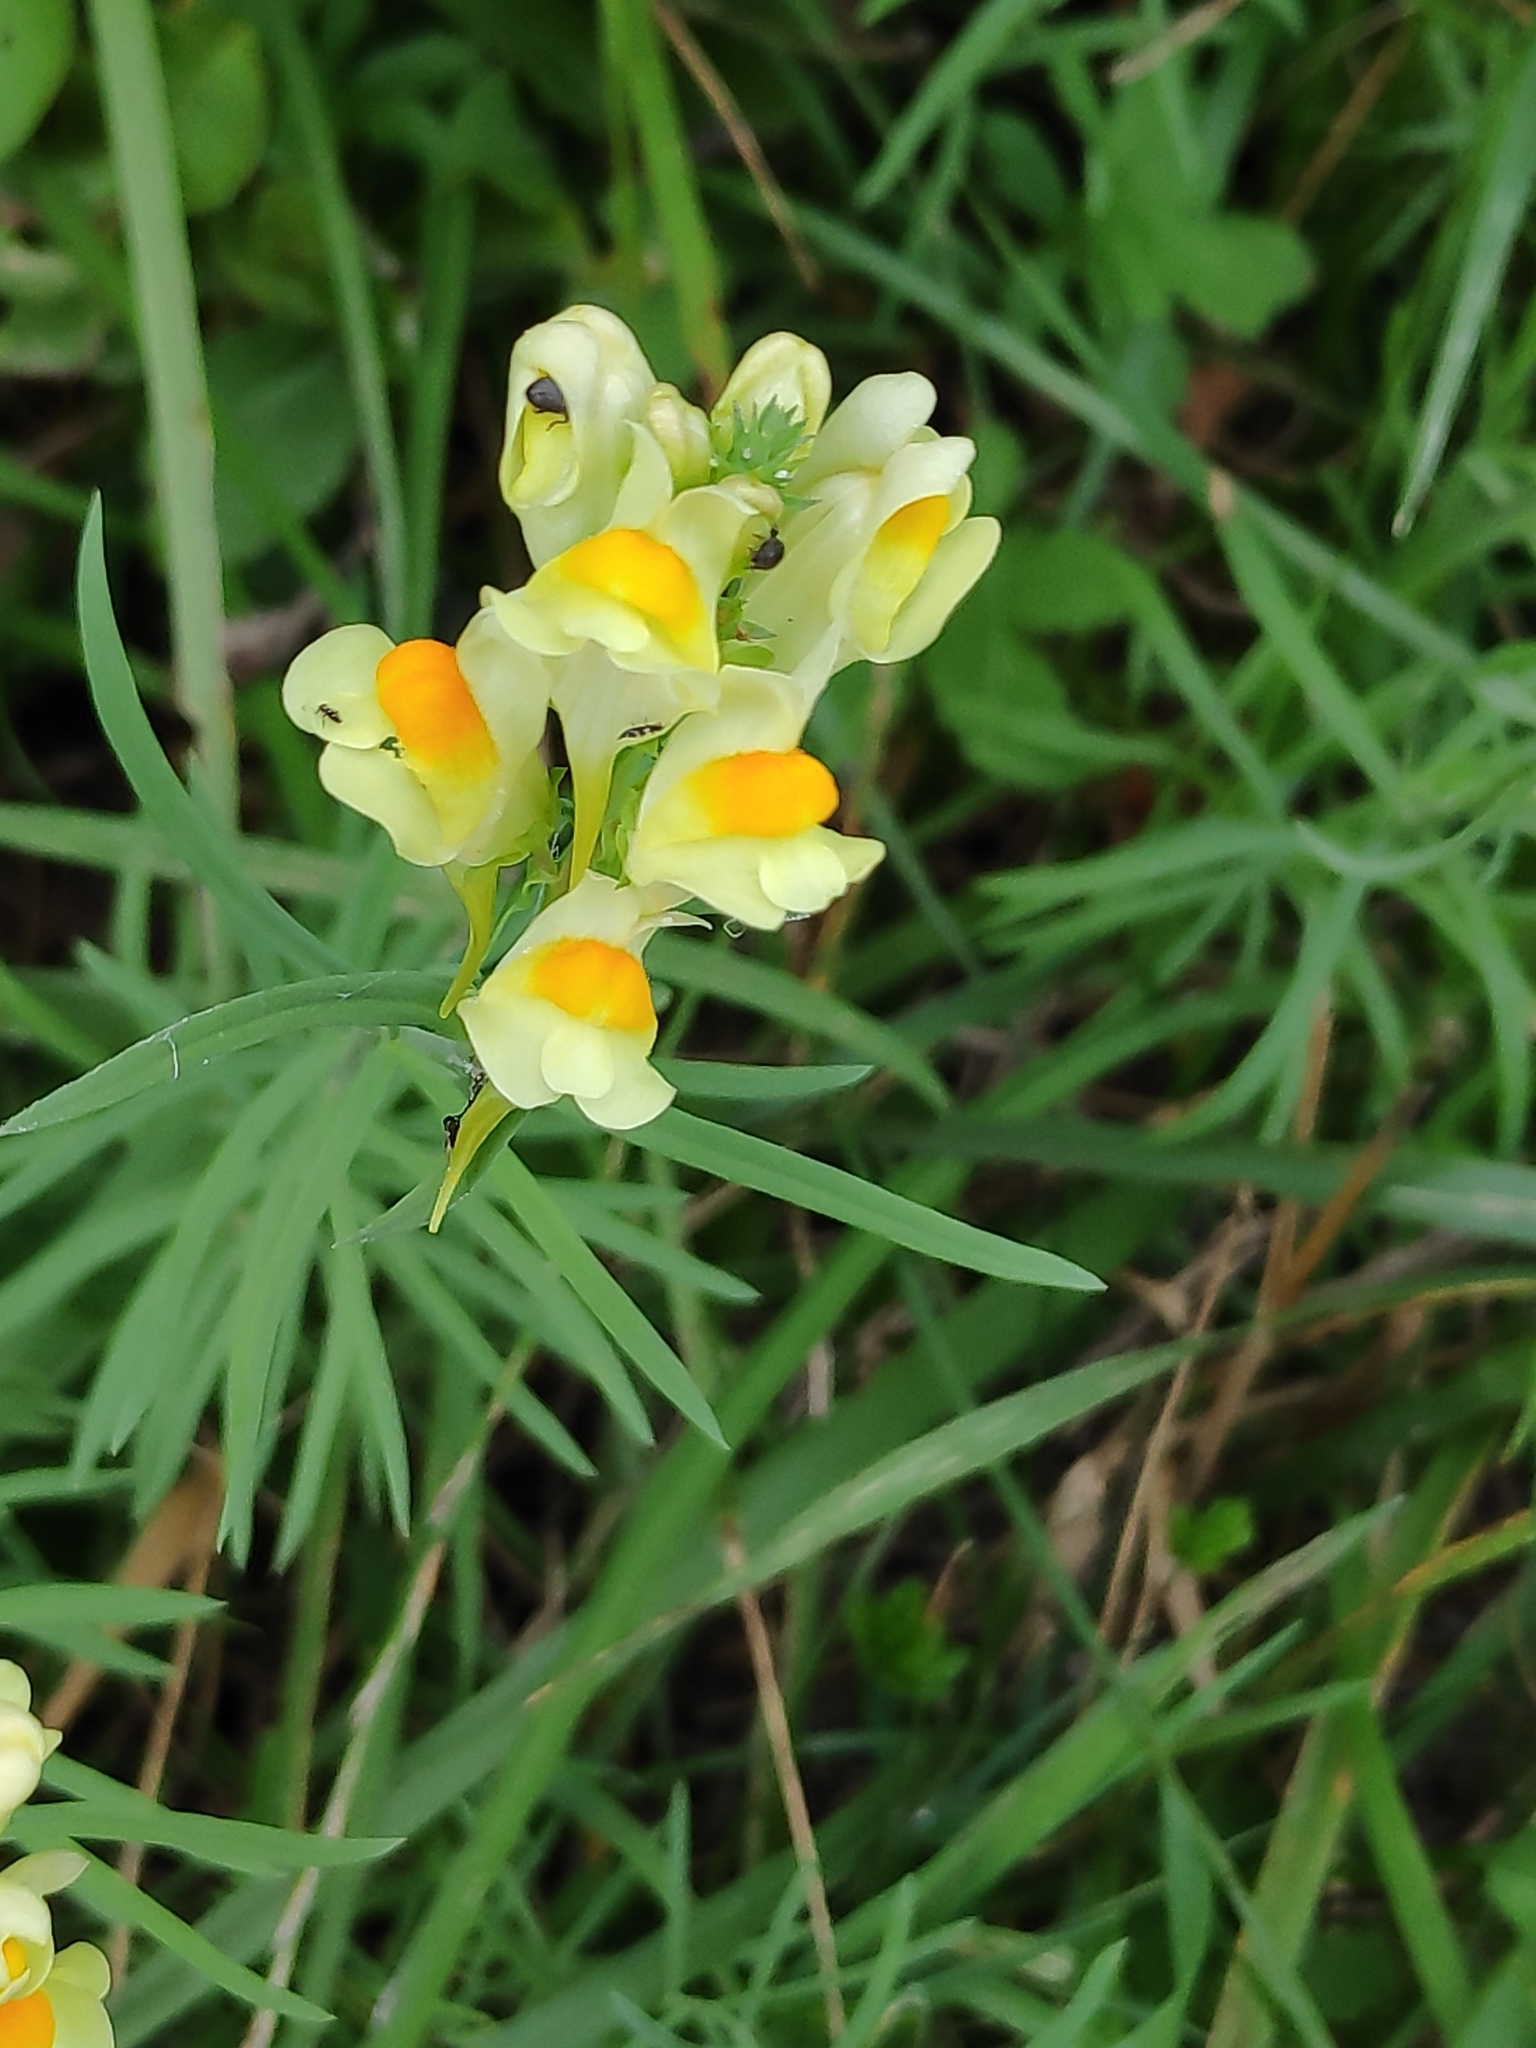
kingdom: Plantae
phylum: Tracheophyta
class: Magnoliopsida
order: Lamiales
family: Plantaginaceae
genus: Linaria
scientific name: Linaria vulgaris
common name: Butter and eggs
